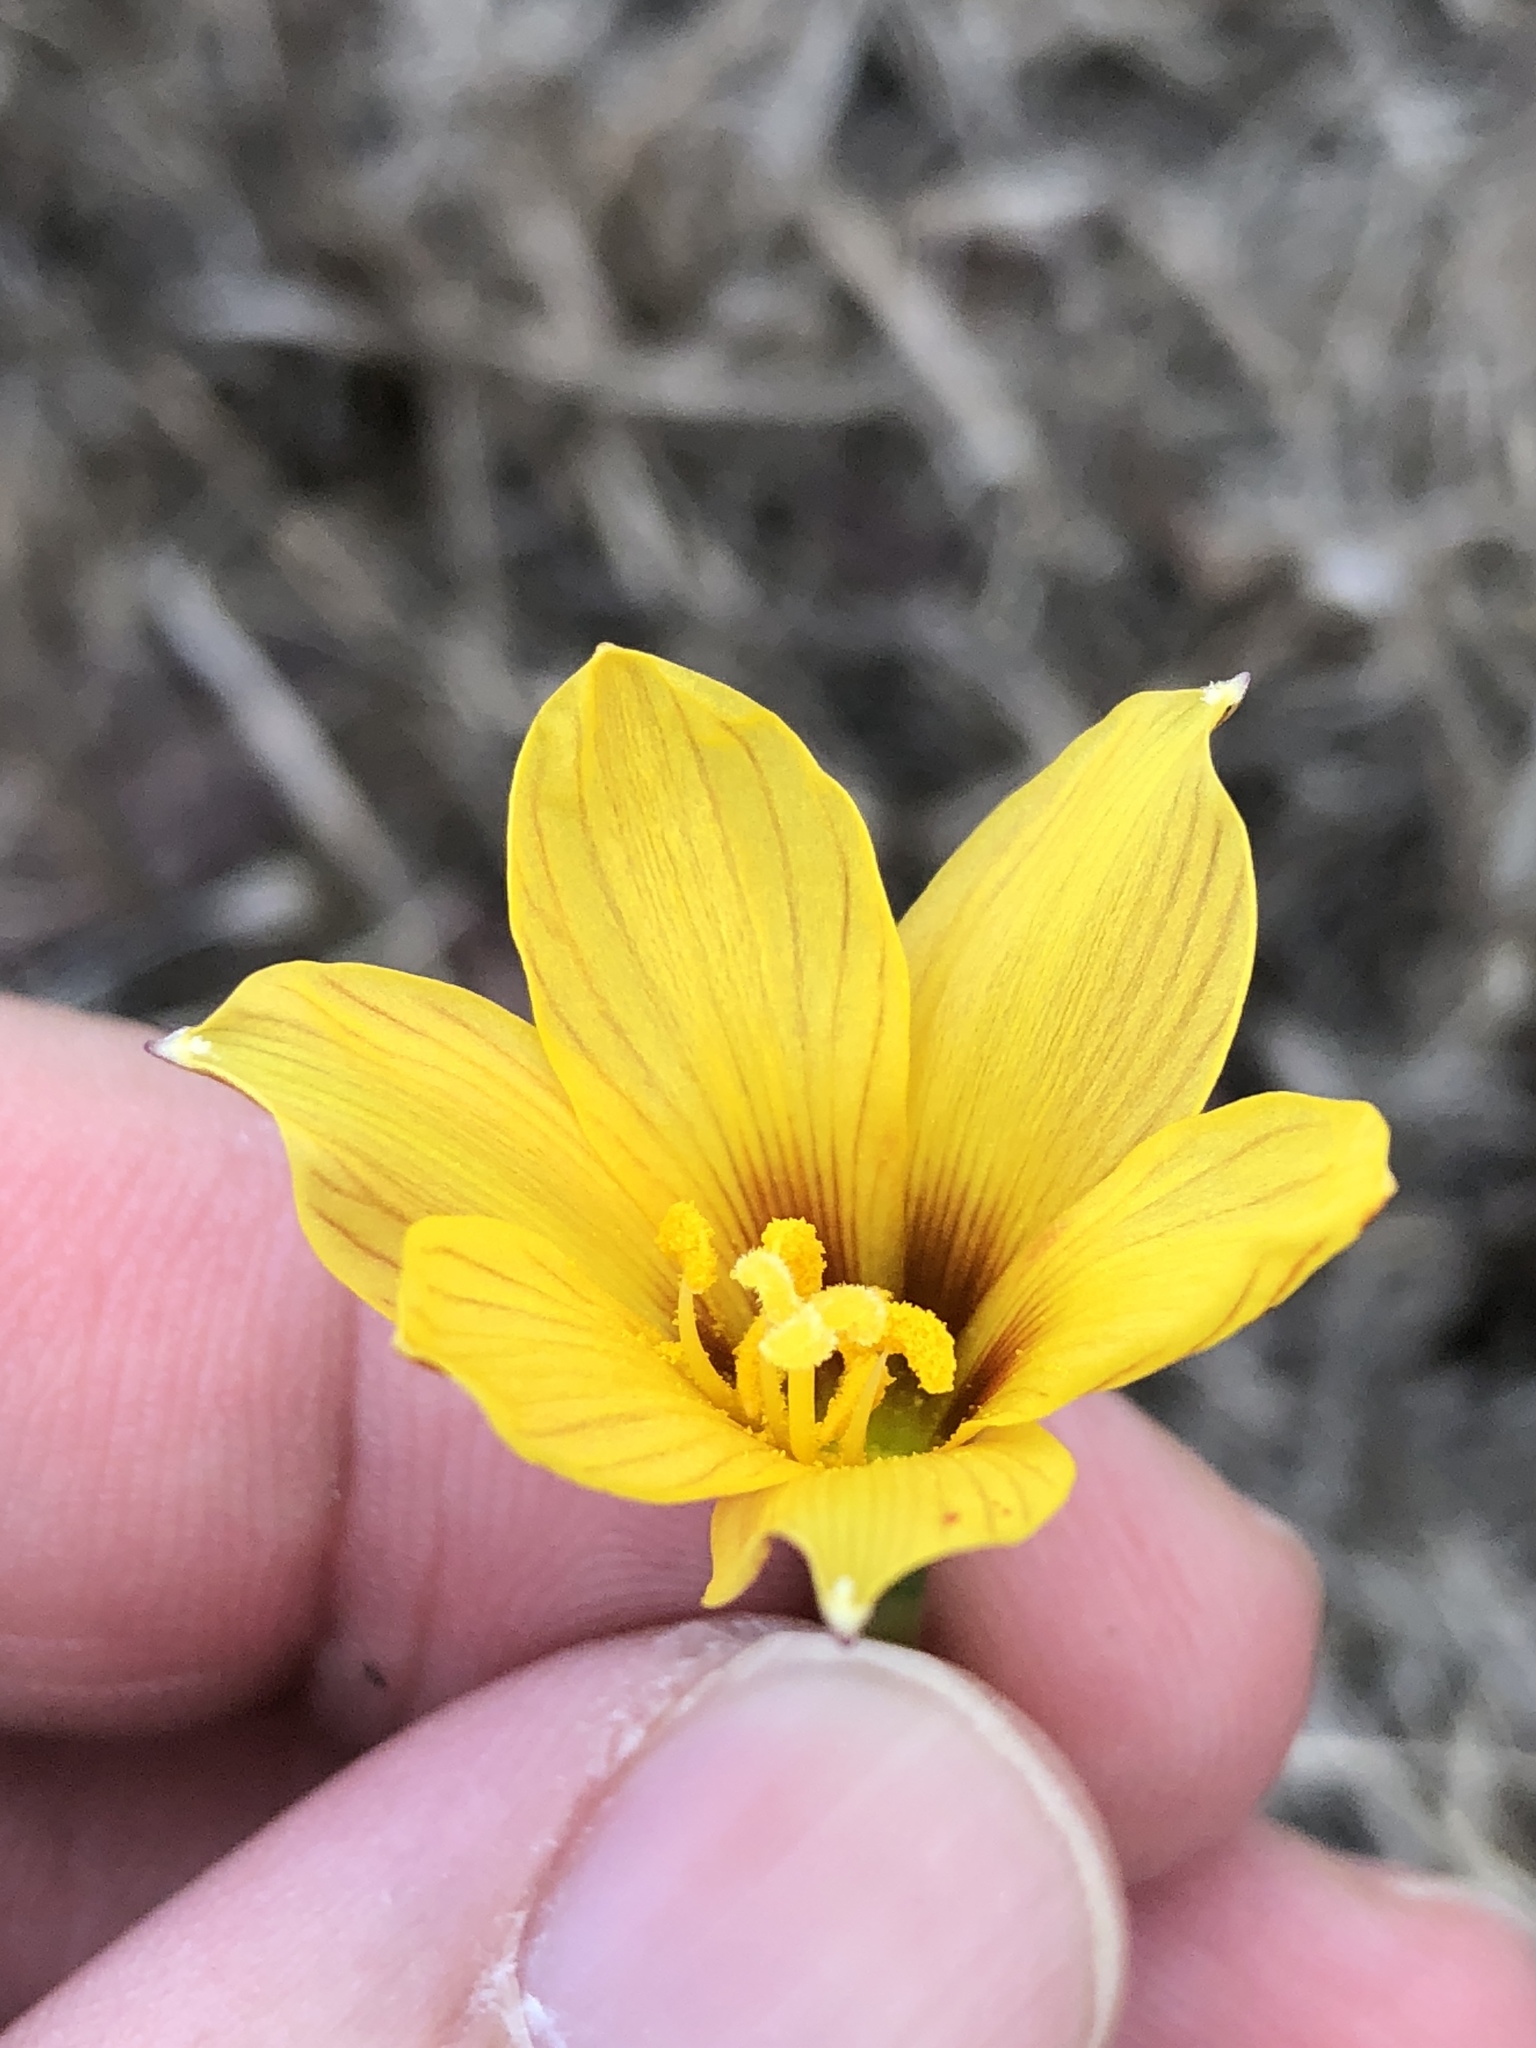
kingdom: Plantae
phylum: Tracheophyta
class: Liliopsida
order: Asparagales
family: Amaryllidaceae
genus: Zephyranthes
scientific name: Zephyranthes tubispatha
